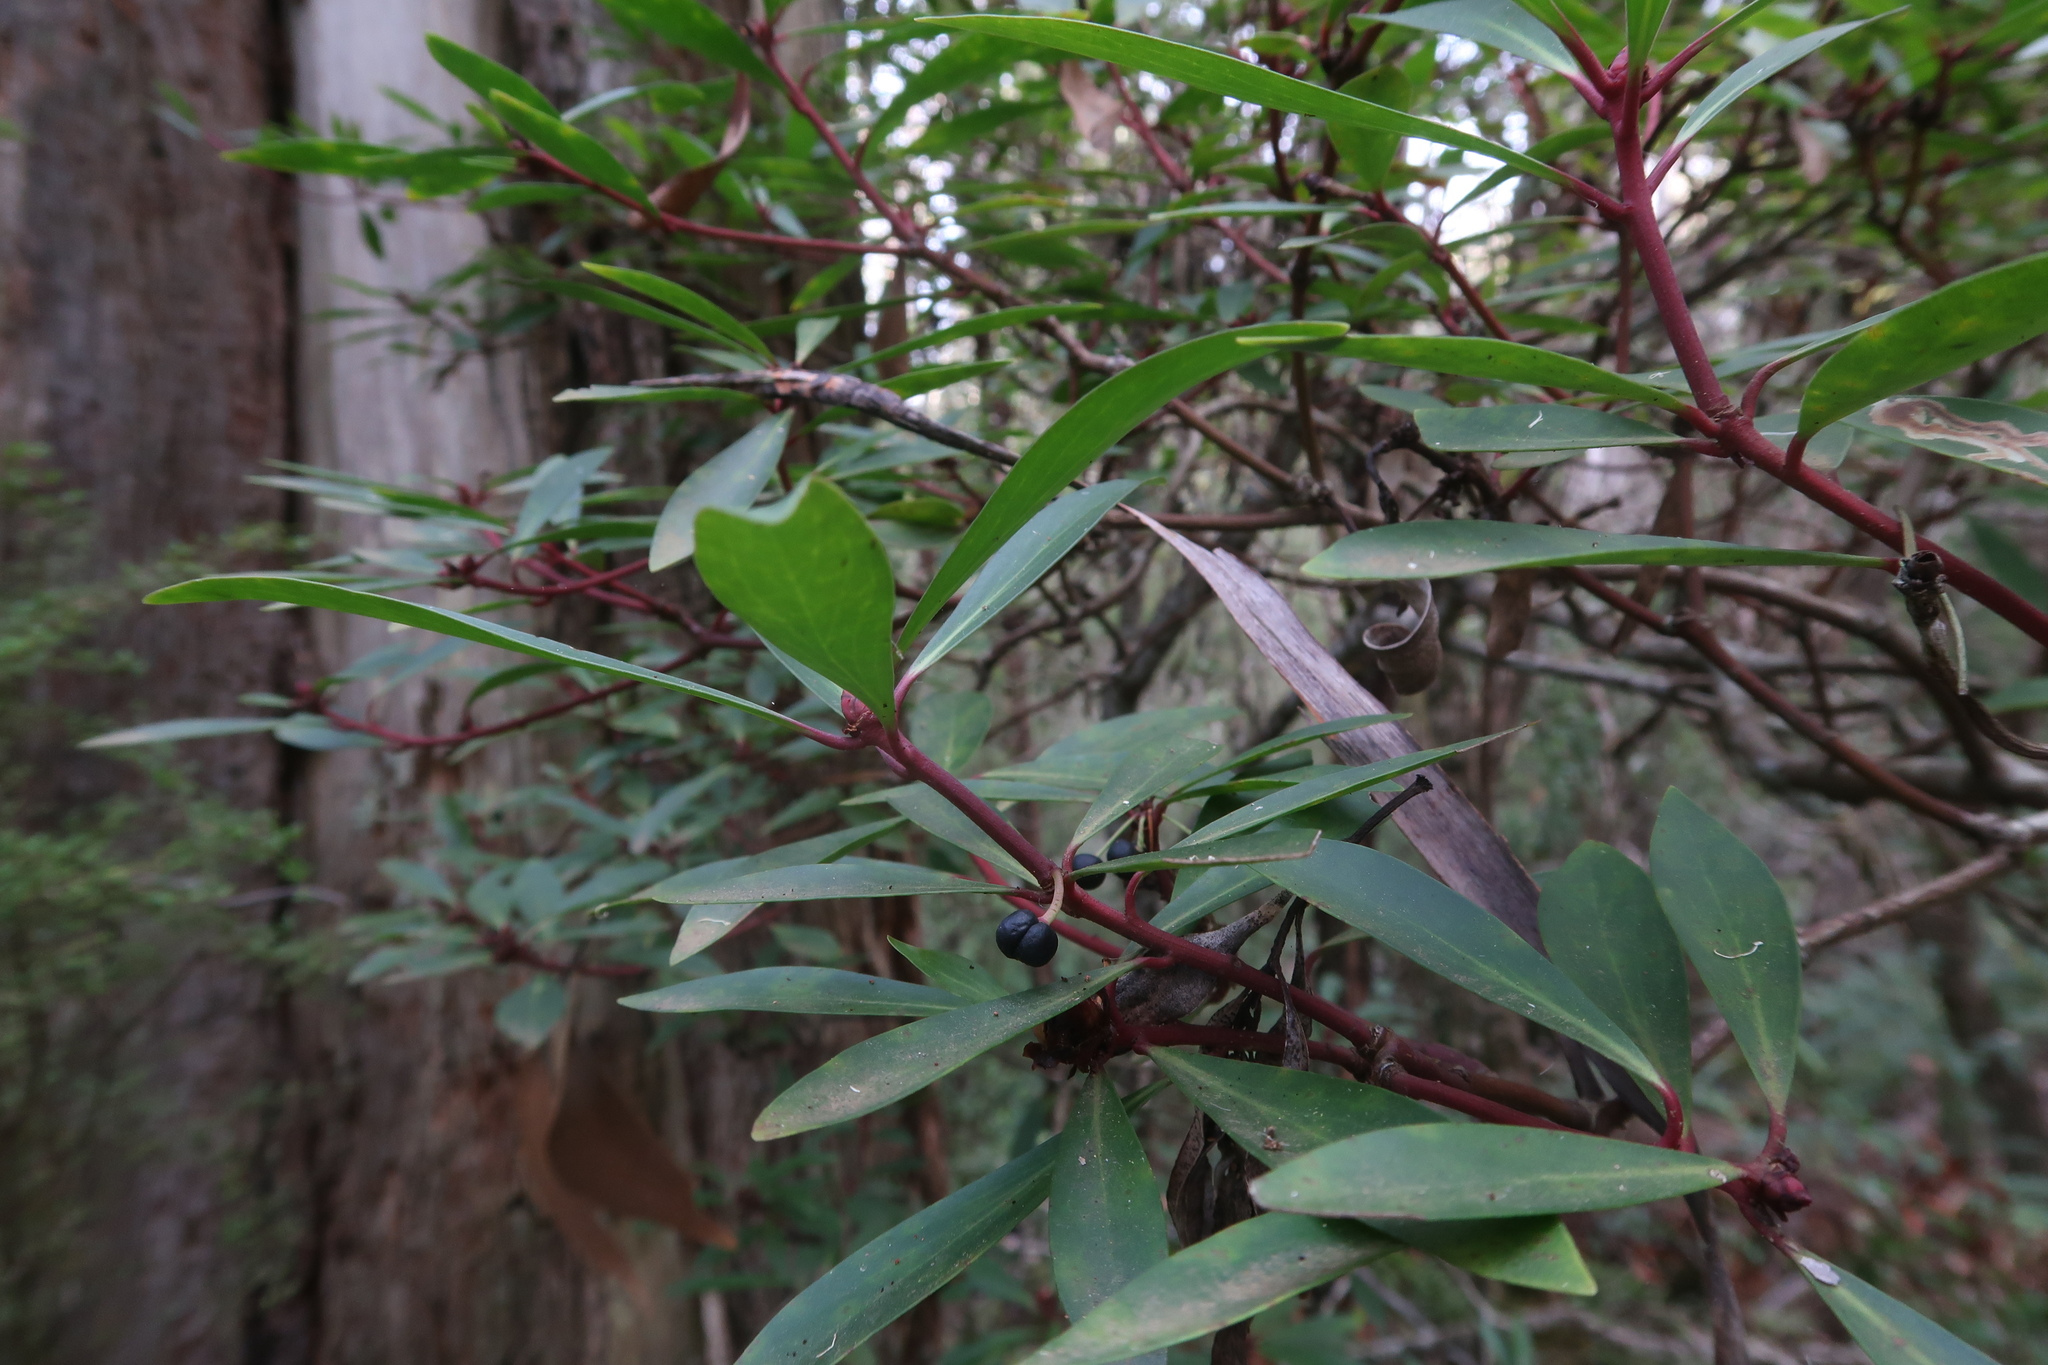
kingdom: Plantae
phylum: Tracheophyta
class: Magnoliopsida
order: Canellales
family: Winteraceae
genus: Drimys
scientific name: Drimys aromatica
